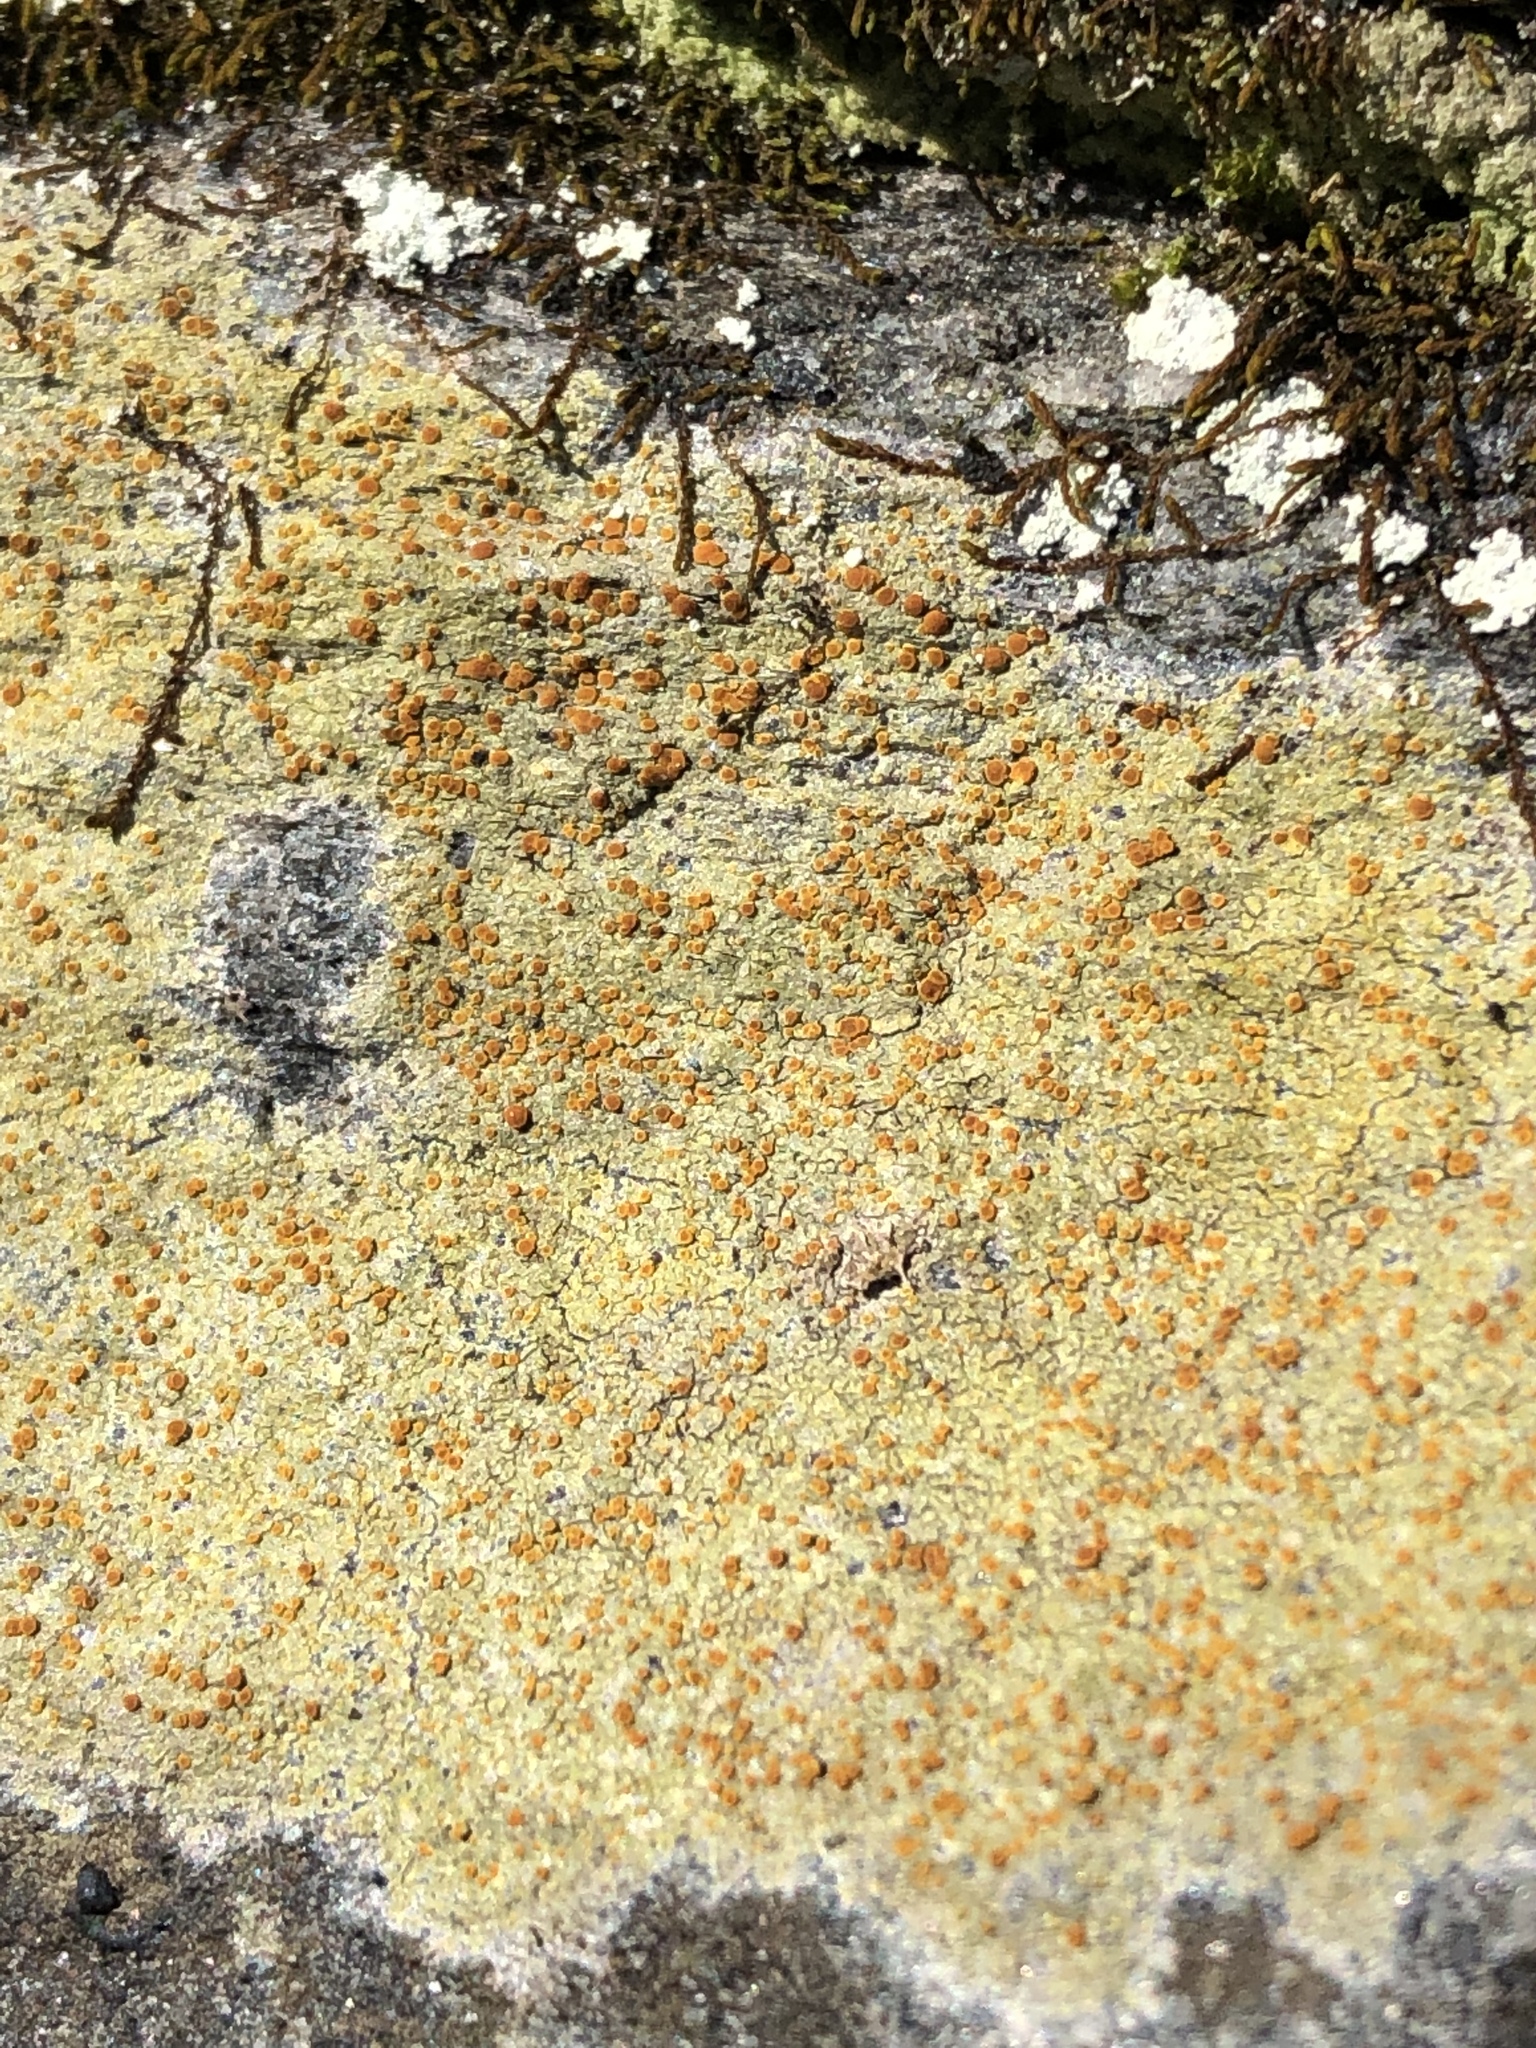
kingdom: Fungi
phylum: Ascomycota
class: Lecanoromycetes
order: Teloschistales
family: Teloschistaceae
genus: Gyalolechia
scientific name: Gyalolechia flavovirescens
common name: Sulphur firedot
